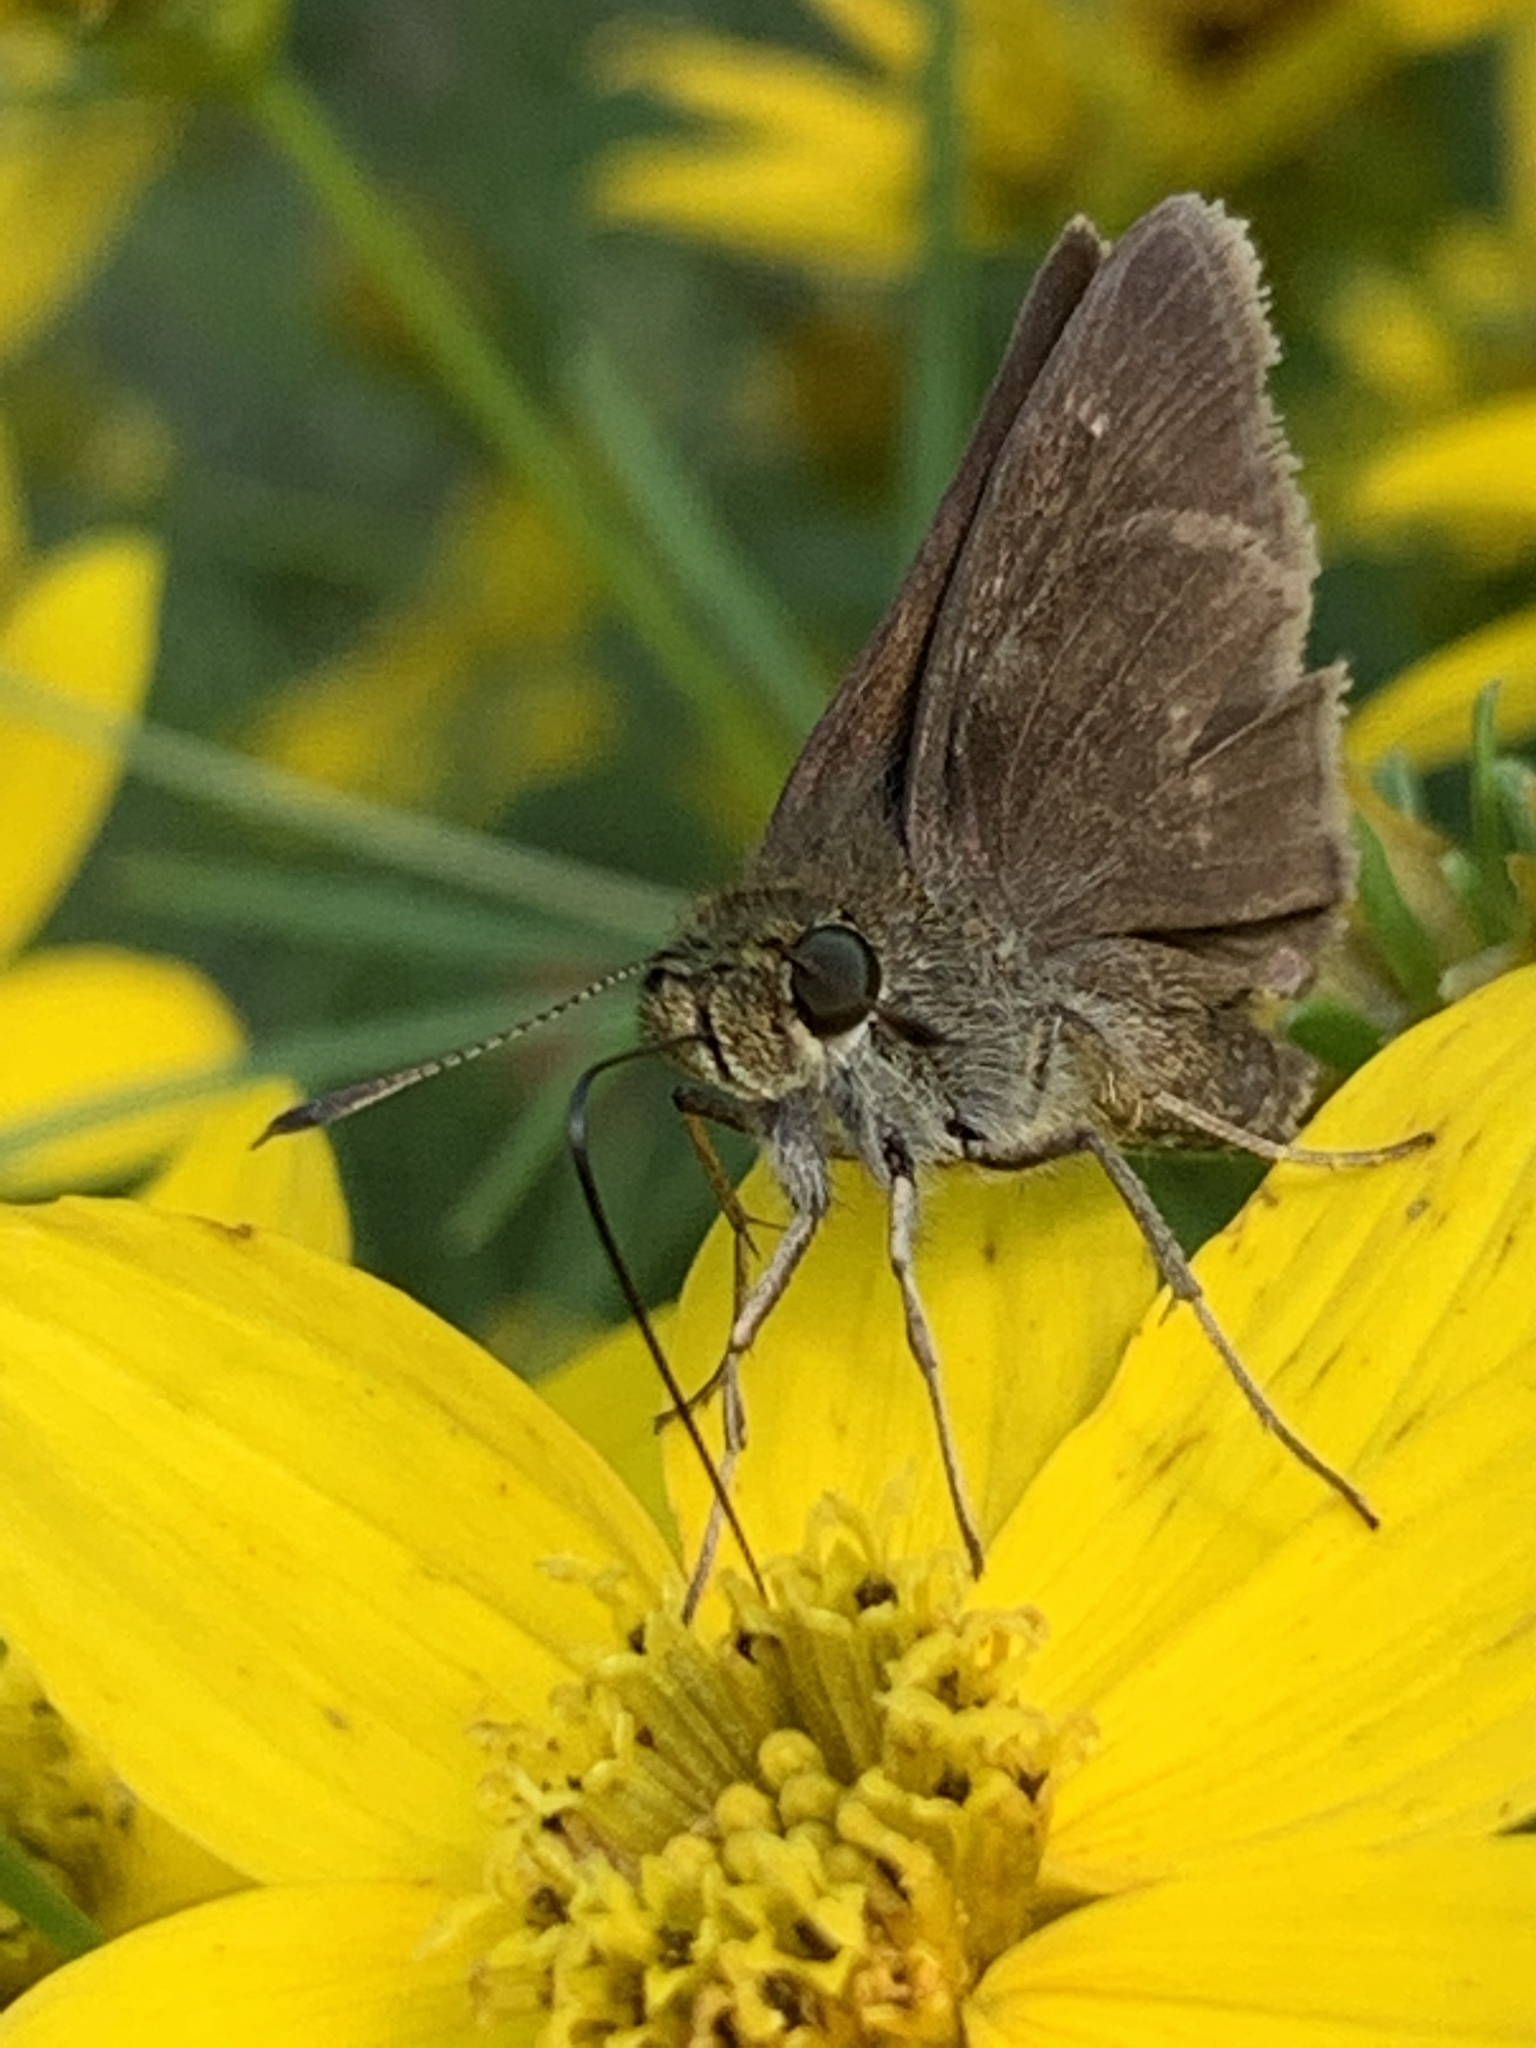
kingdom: Animalia
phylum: Arthropoda
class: Insecta
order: Lepidoptera
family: Hesperiidae
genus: Euphyes
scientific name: Euphyes vestris
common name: Dun skipper
